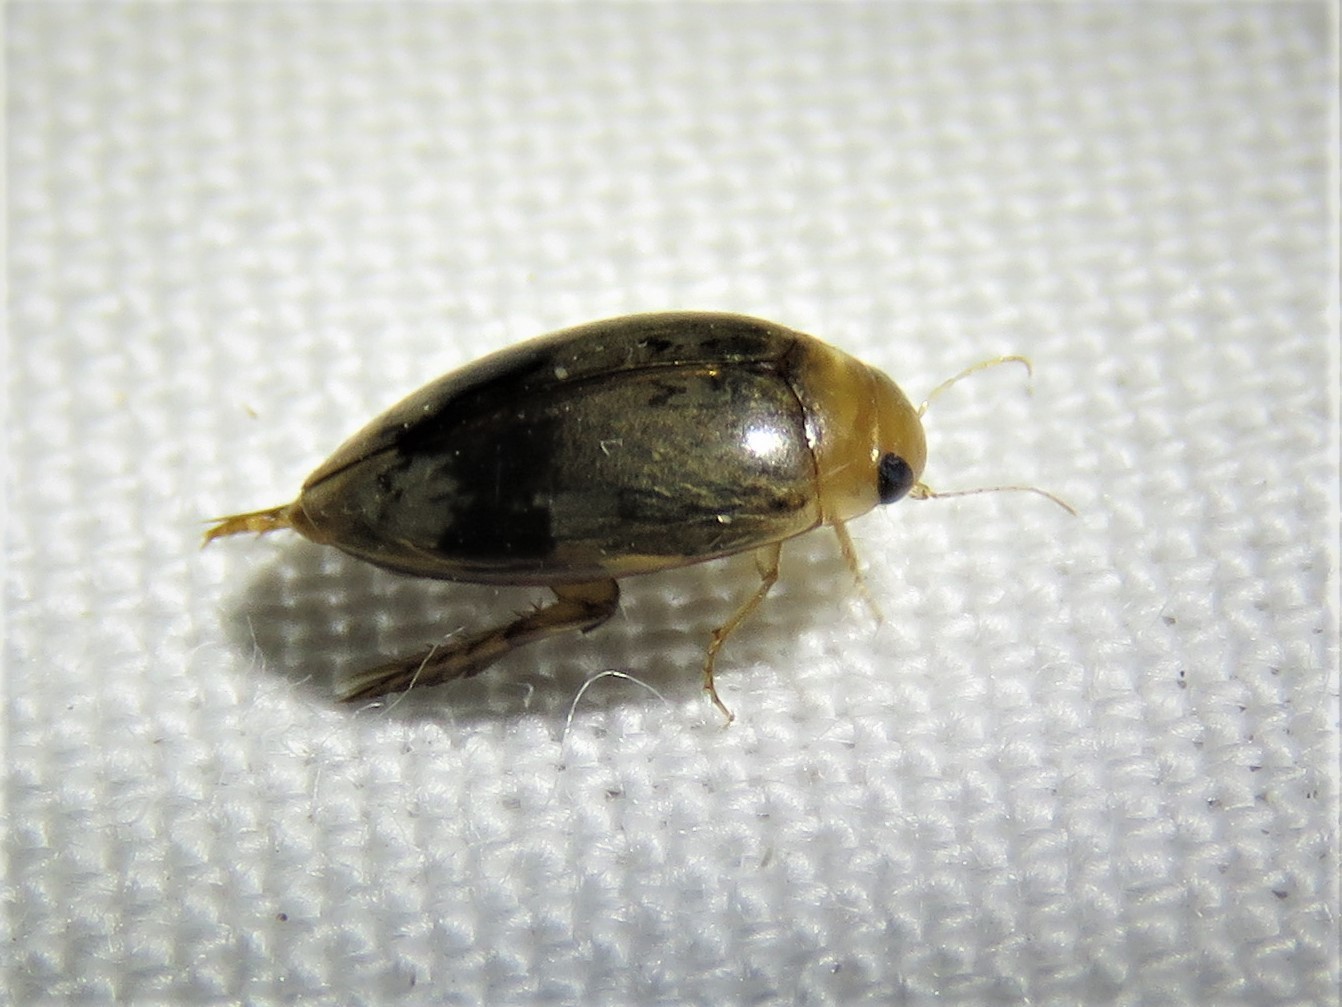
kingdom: Animalia
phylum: Arthropoda
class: Insecta
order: Coleoptera
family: Dytiscidae
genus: Laccophilus
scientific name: Laccophilus fasciatus
